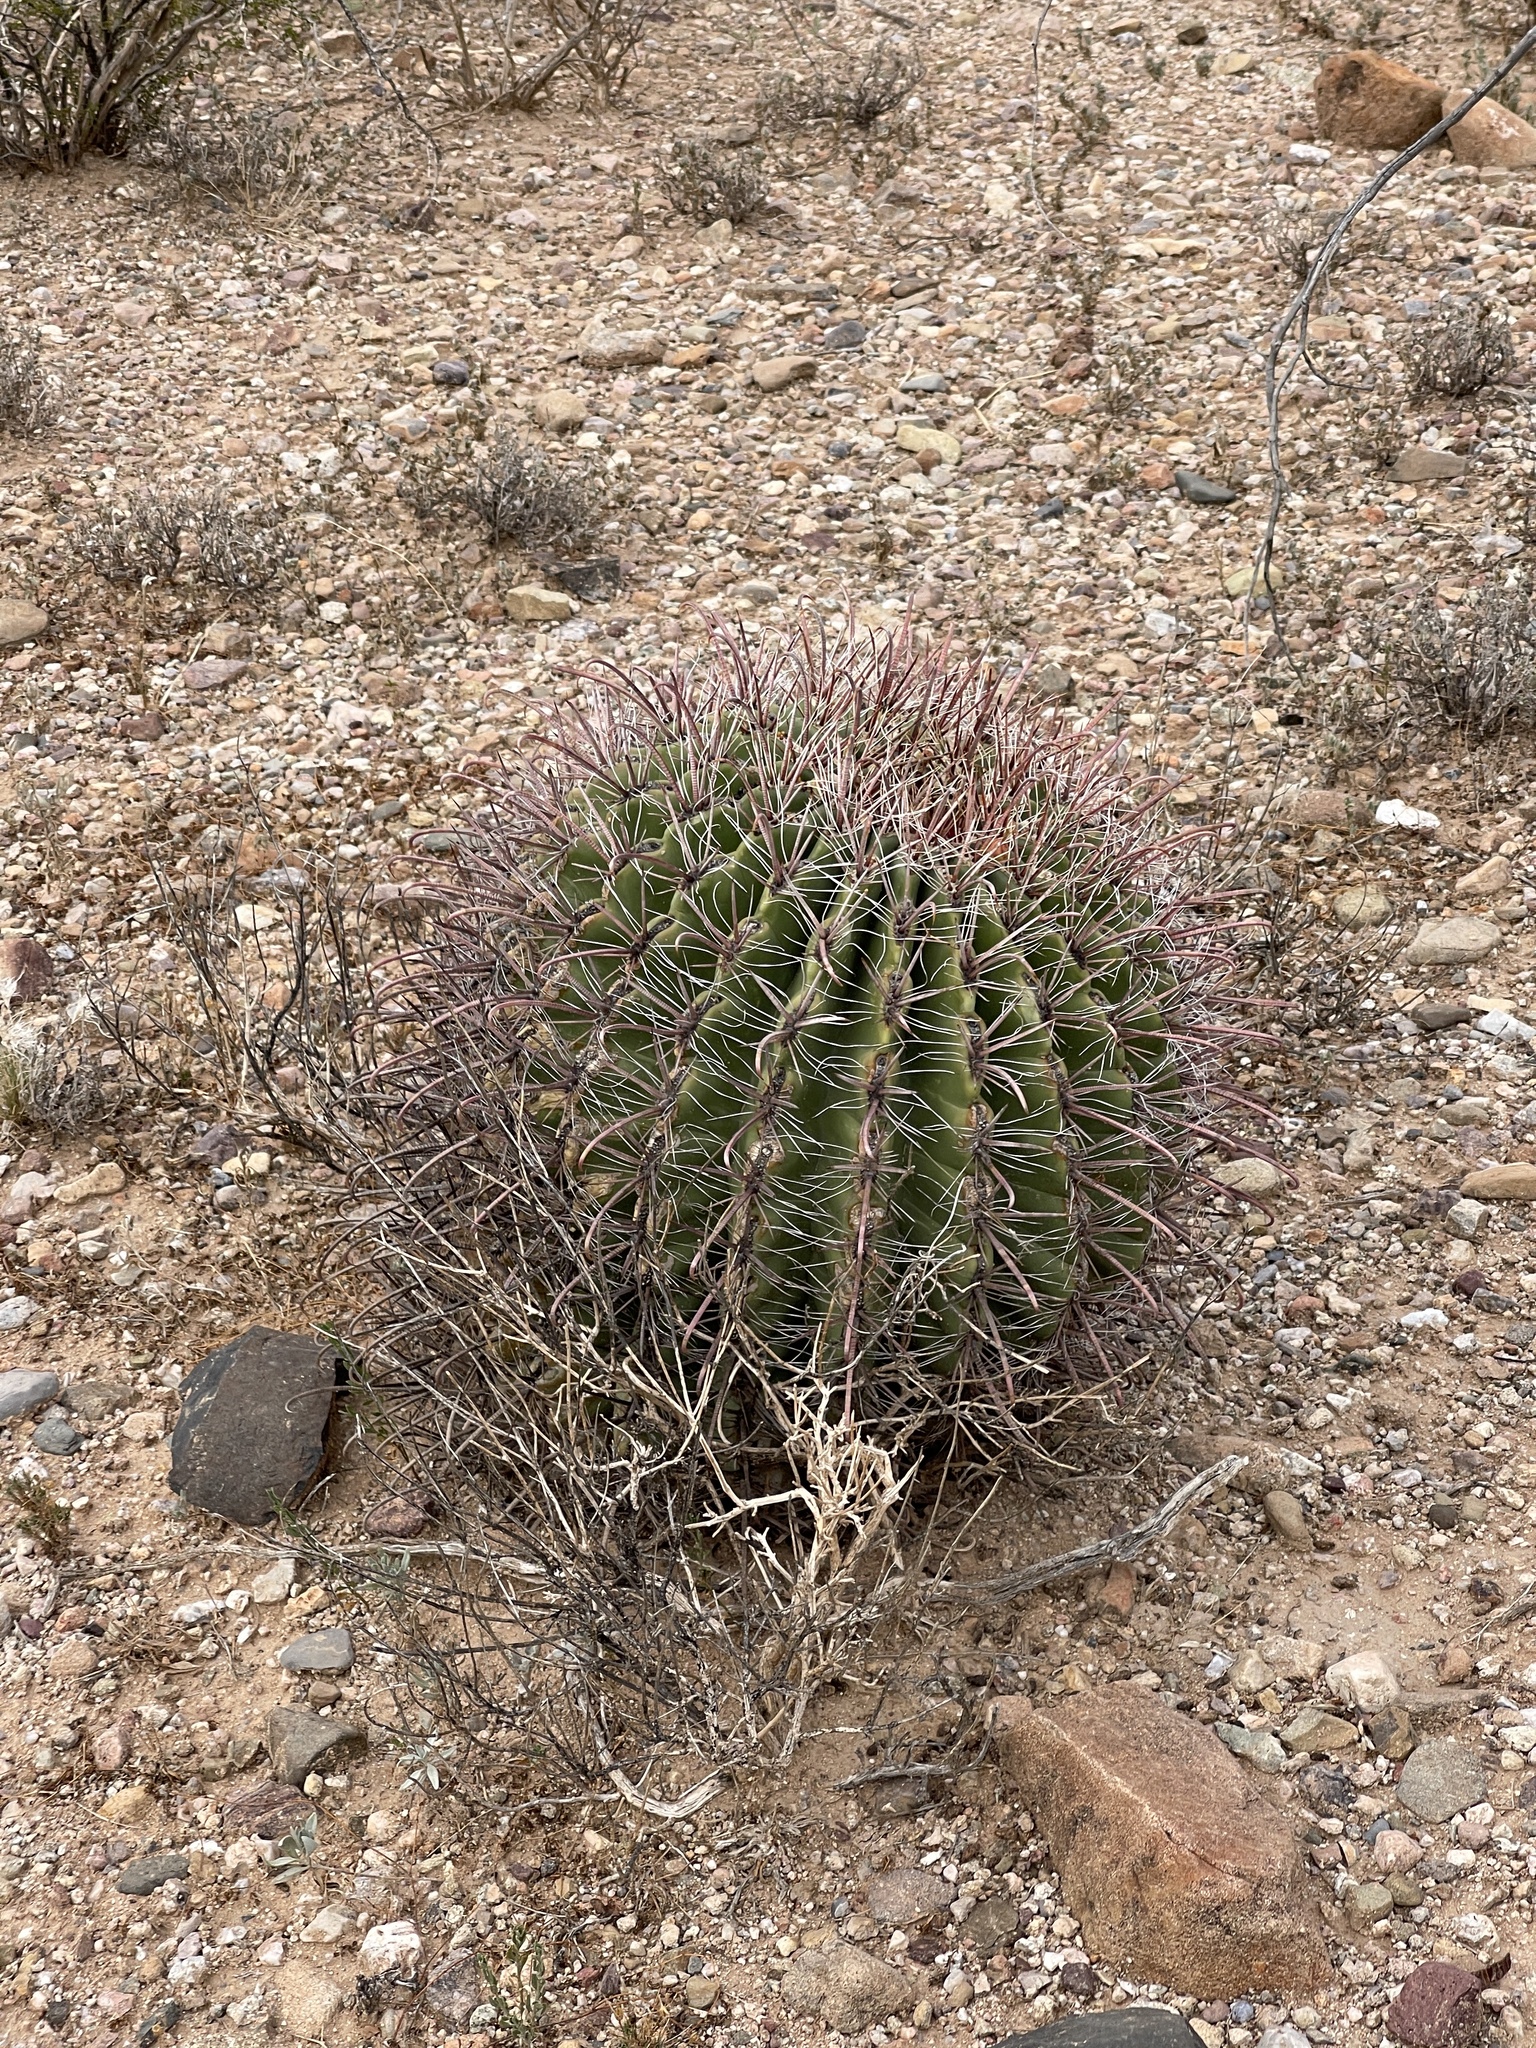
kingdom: Plantae
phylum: Tracheophyta
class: Magnoliopsida
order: Caryophyllales
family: Cactaceae
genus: Ferocactus
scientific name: Ferocactus wislizeni
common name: Candy barrel cactus
